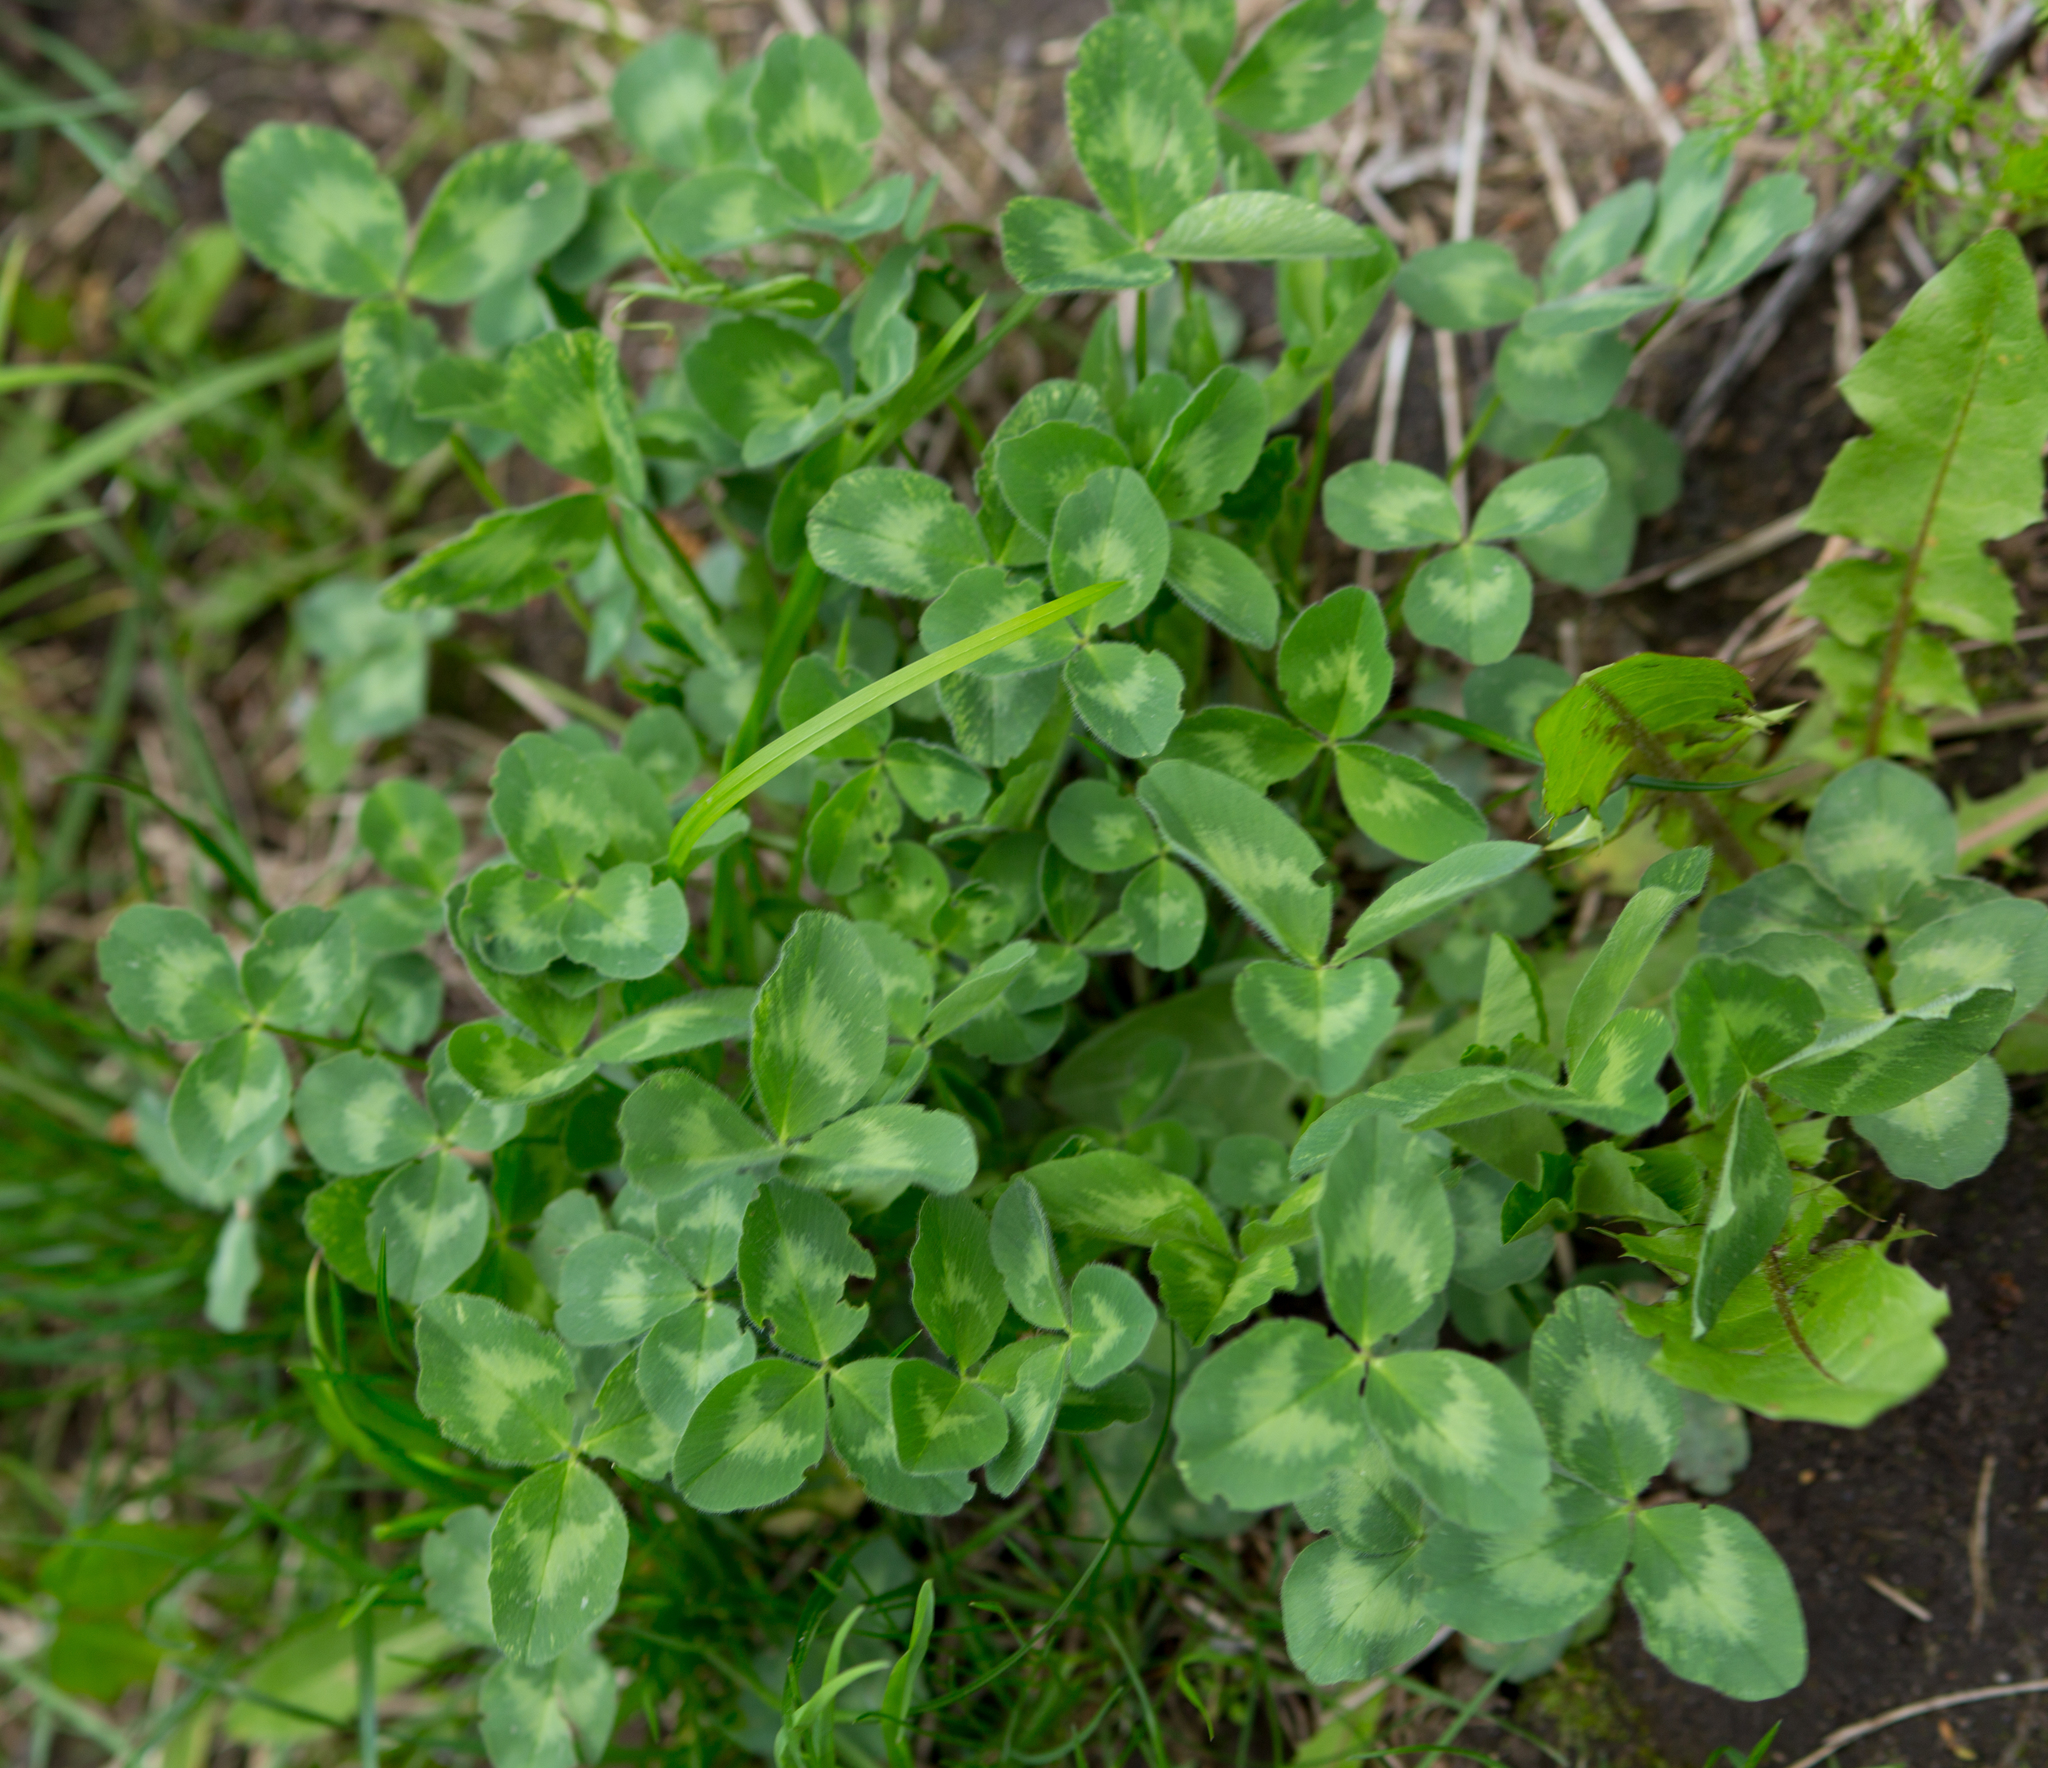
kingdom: Plantae
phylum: Tracheophyta
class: Magnoliopsida
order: Fabales
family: Fabaceae
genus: Trifolium
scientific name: Trifolium pratense
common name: Red clover
